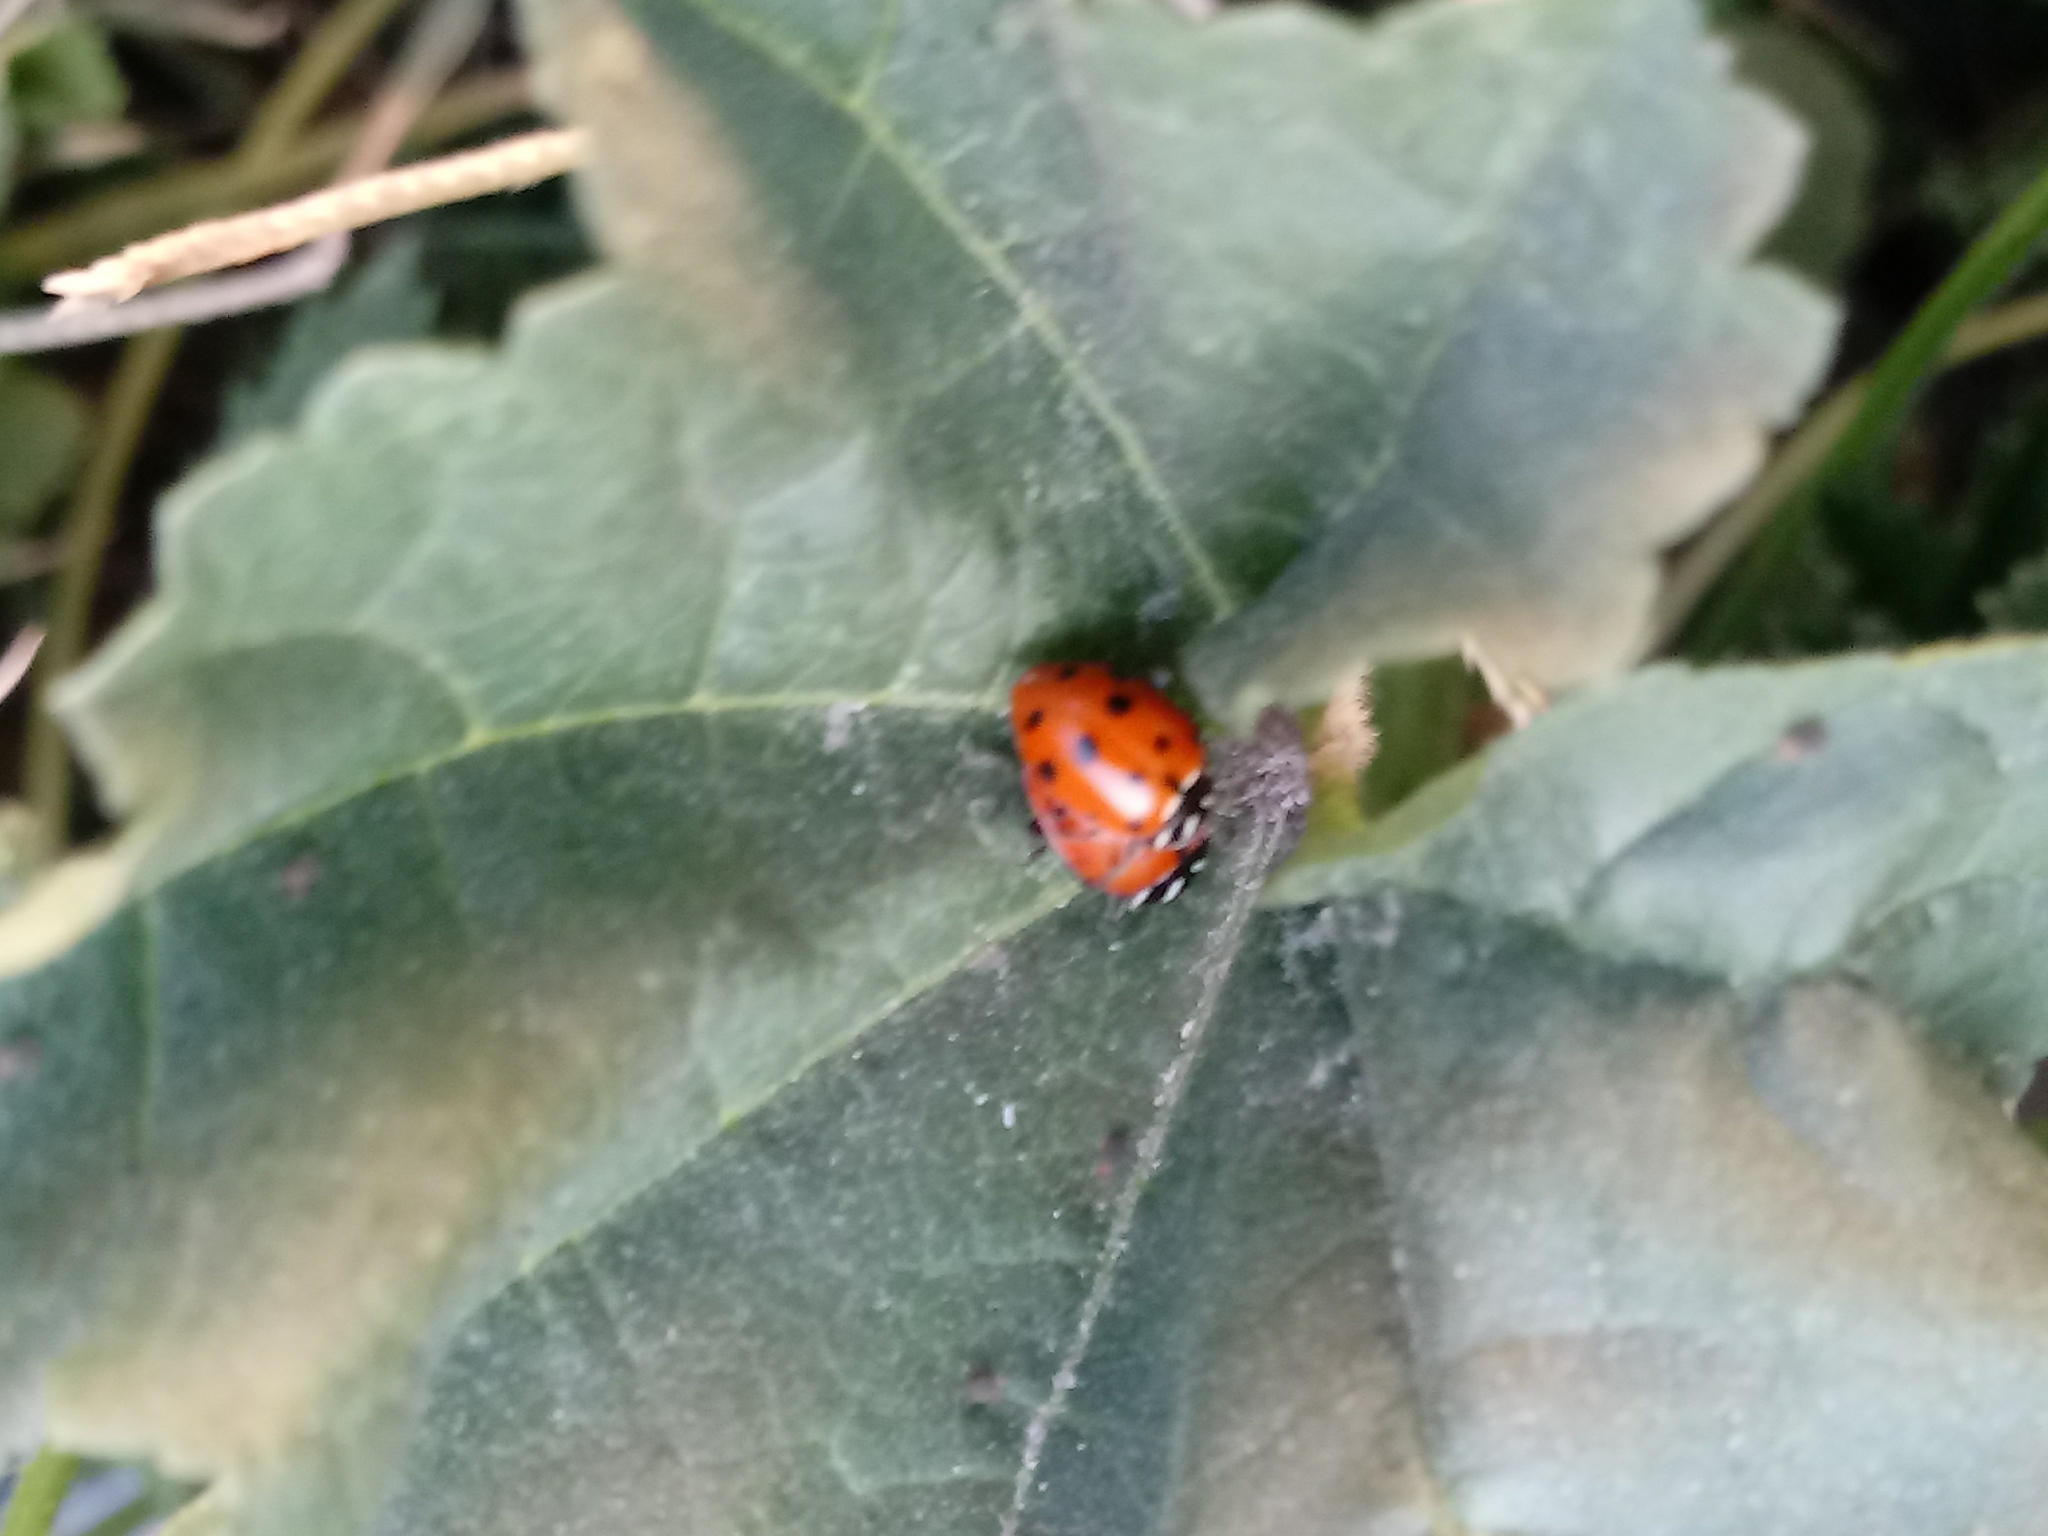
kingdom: Animalia
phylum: Arthropoda
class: Insecta
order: Coleoptera
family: Coccinellidae
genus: Hippodamia
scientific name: Hippodamia convergens
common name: Convergent lady beetle
